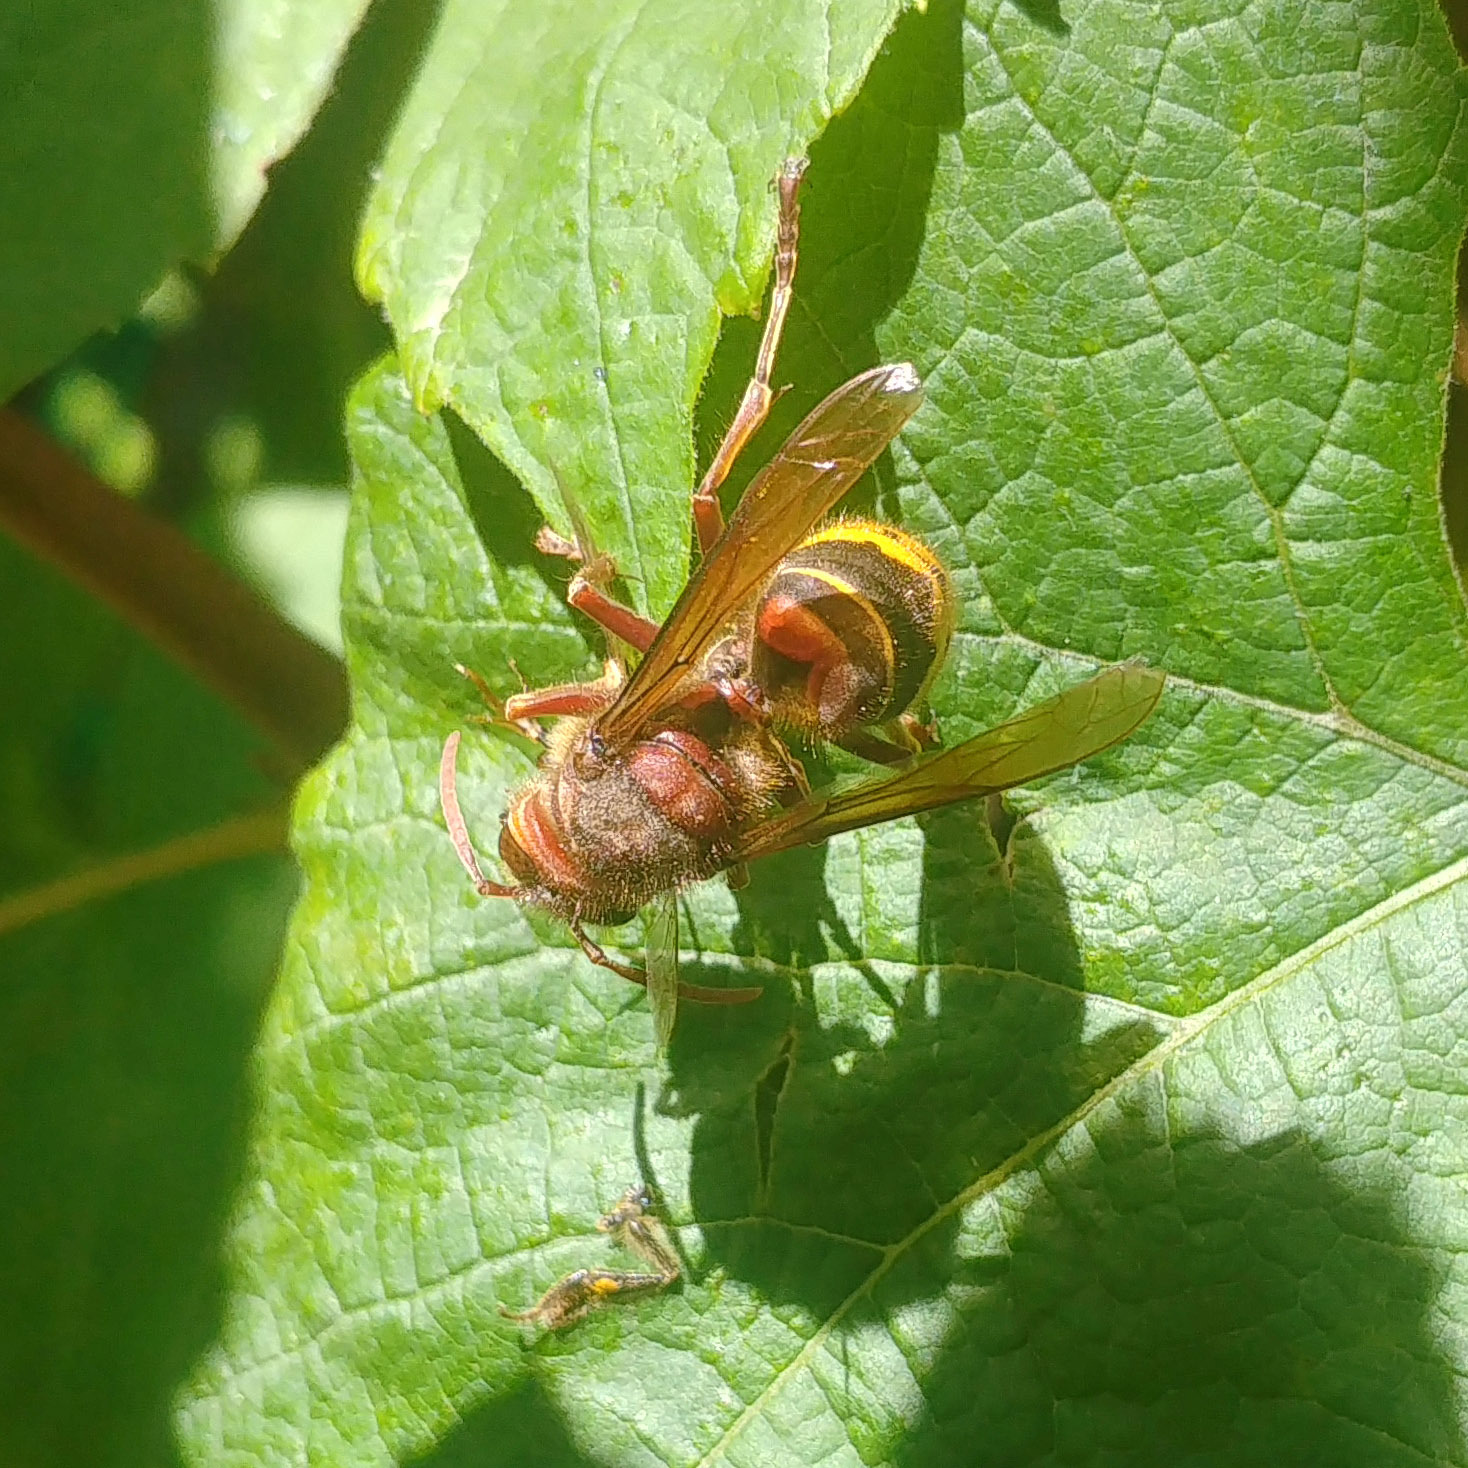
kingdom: Animalia
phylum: Arthropoda
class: Insecta
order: Hymenoptera
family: Vespidae
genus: Vespa
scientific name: Vespa crabro
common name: Hornet
